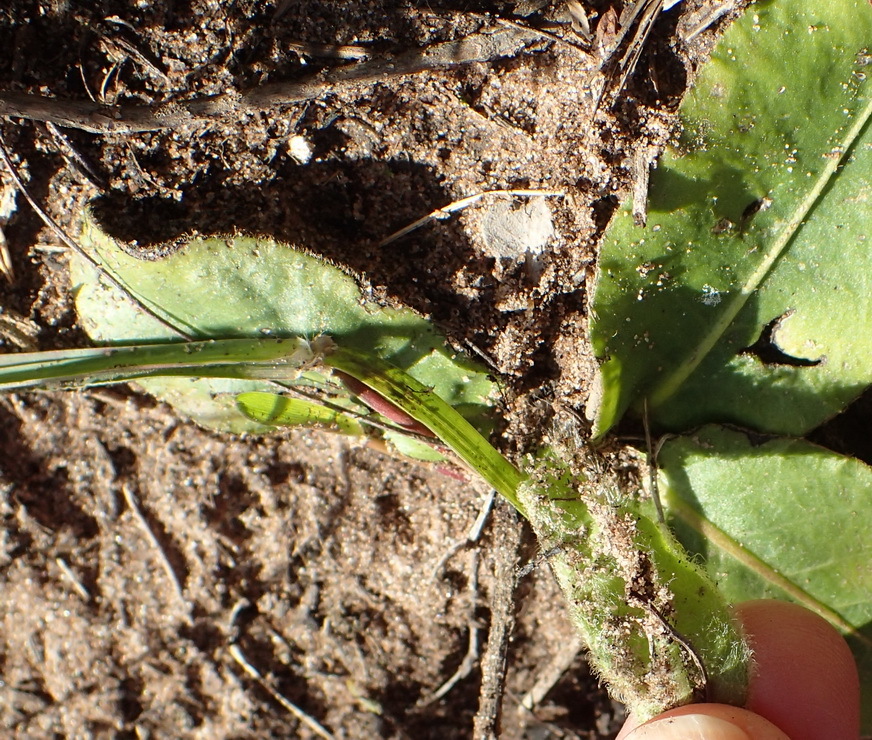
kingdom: Plantae
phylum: Tracheophyta
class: Magnoliopsida
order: Asterales
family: Asteraceae
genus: Piloselloides
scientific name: Piloselloides hirsuta
